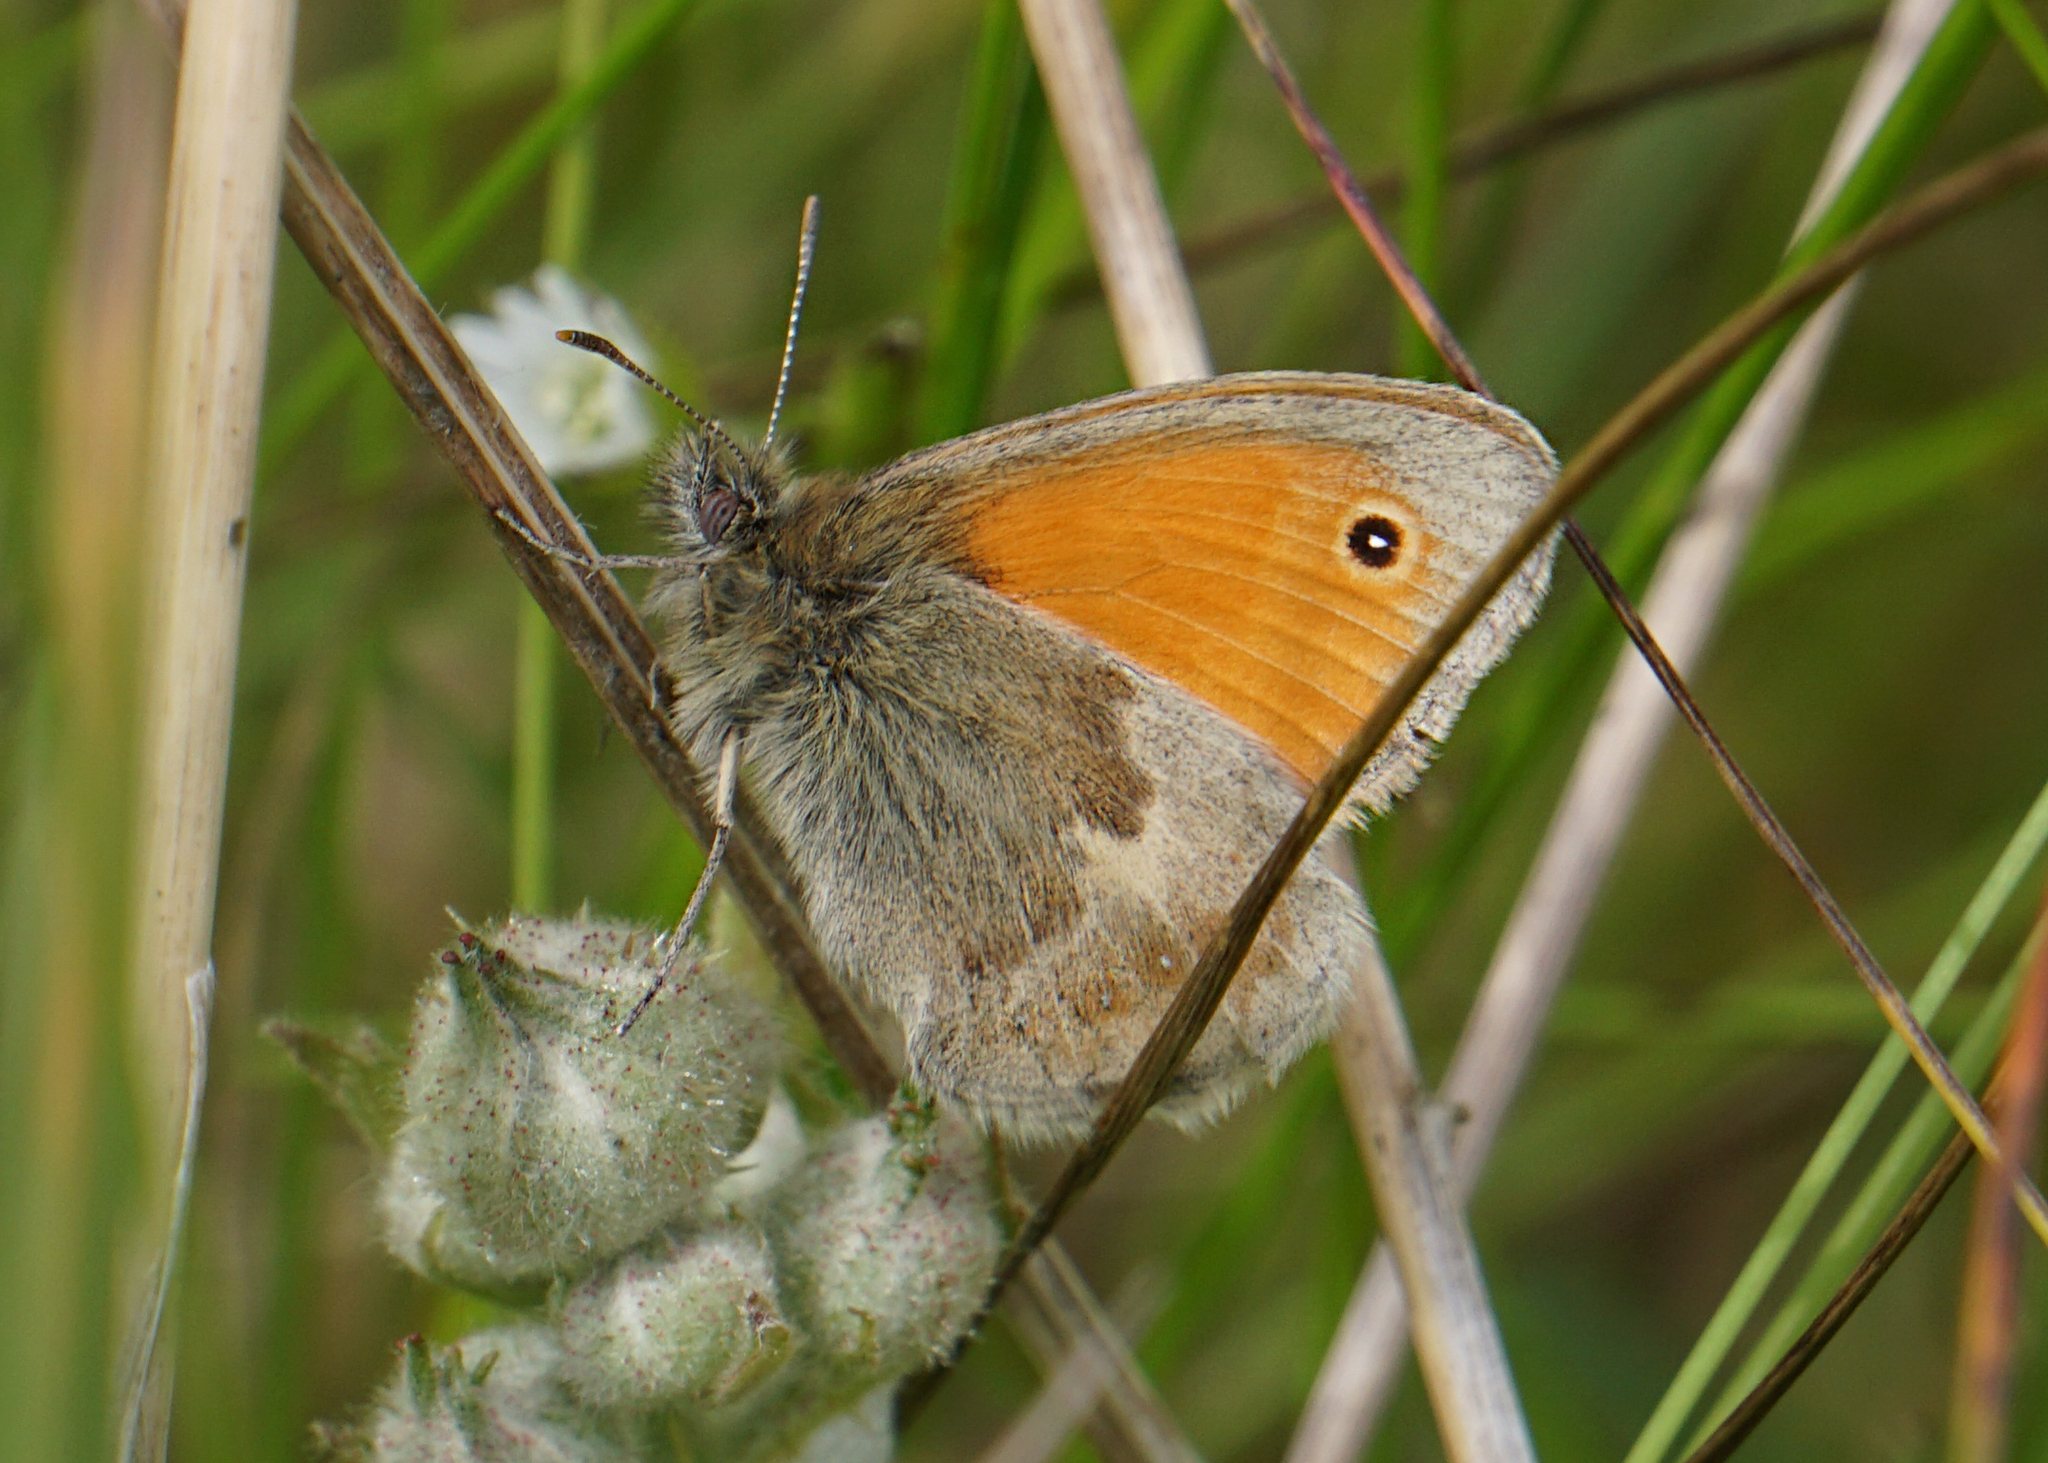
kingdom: Animalia
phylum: Arthropoda
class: Insecta
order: Lepidoptera
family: Nymphalidae
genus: Coenonympha
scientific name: Coenonympha pamphilus
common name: Small heath
